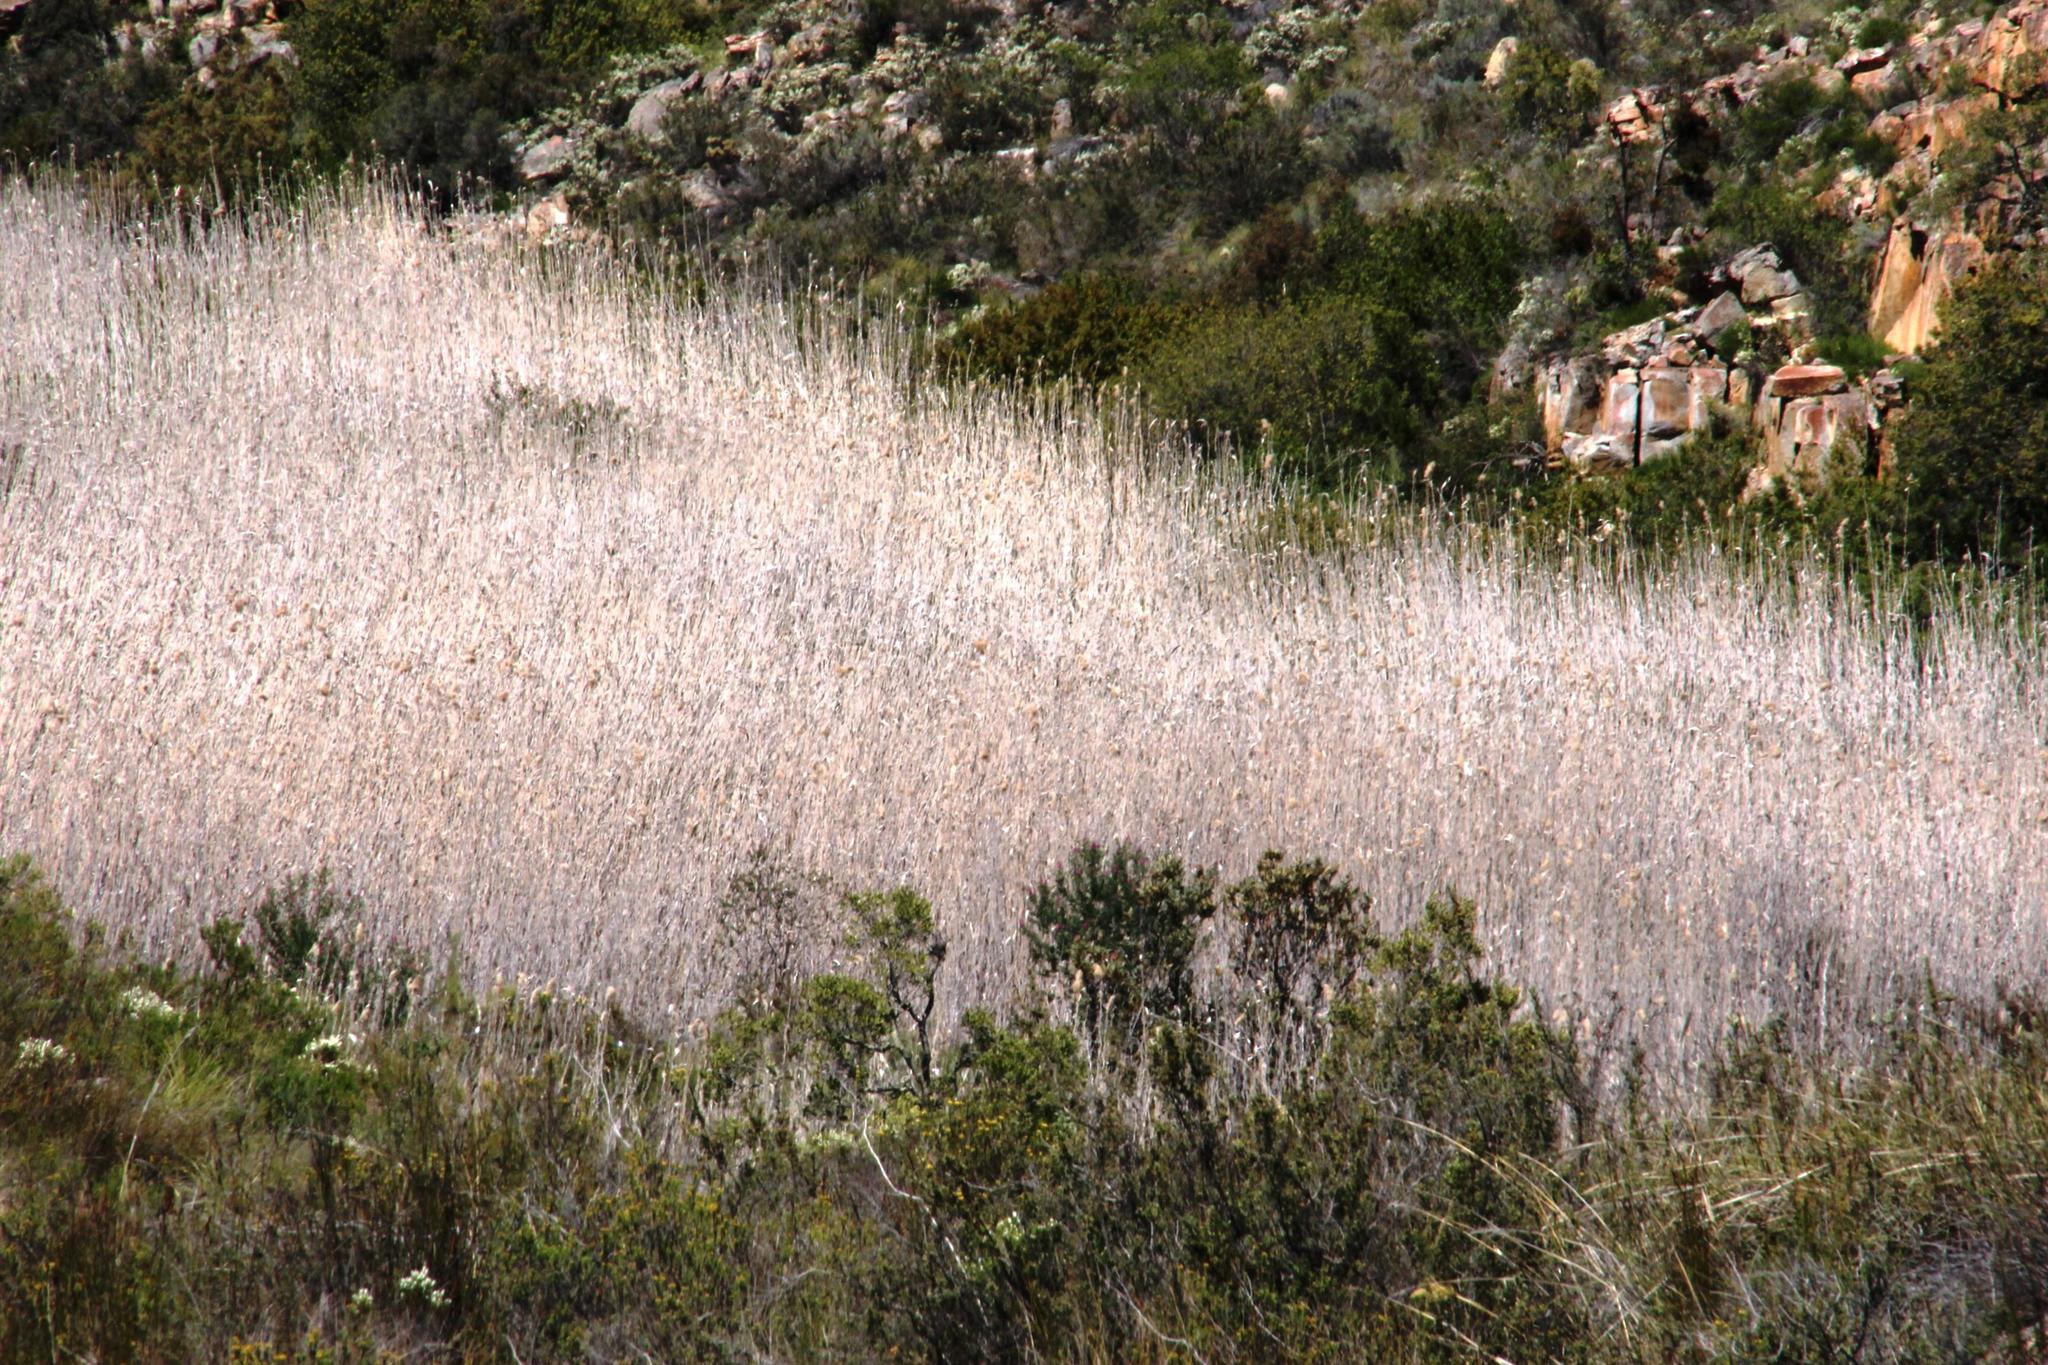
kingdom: Plantae
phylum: Tracheophyta
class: Liliopsida
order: Poales
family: Poaceae
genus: Phragmites
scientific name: Phragmites australis
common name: Common reed
